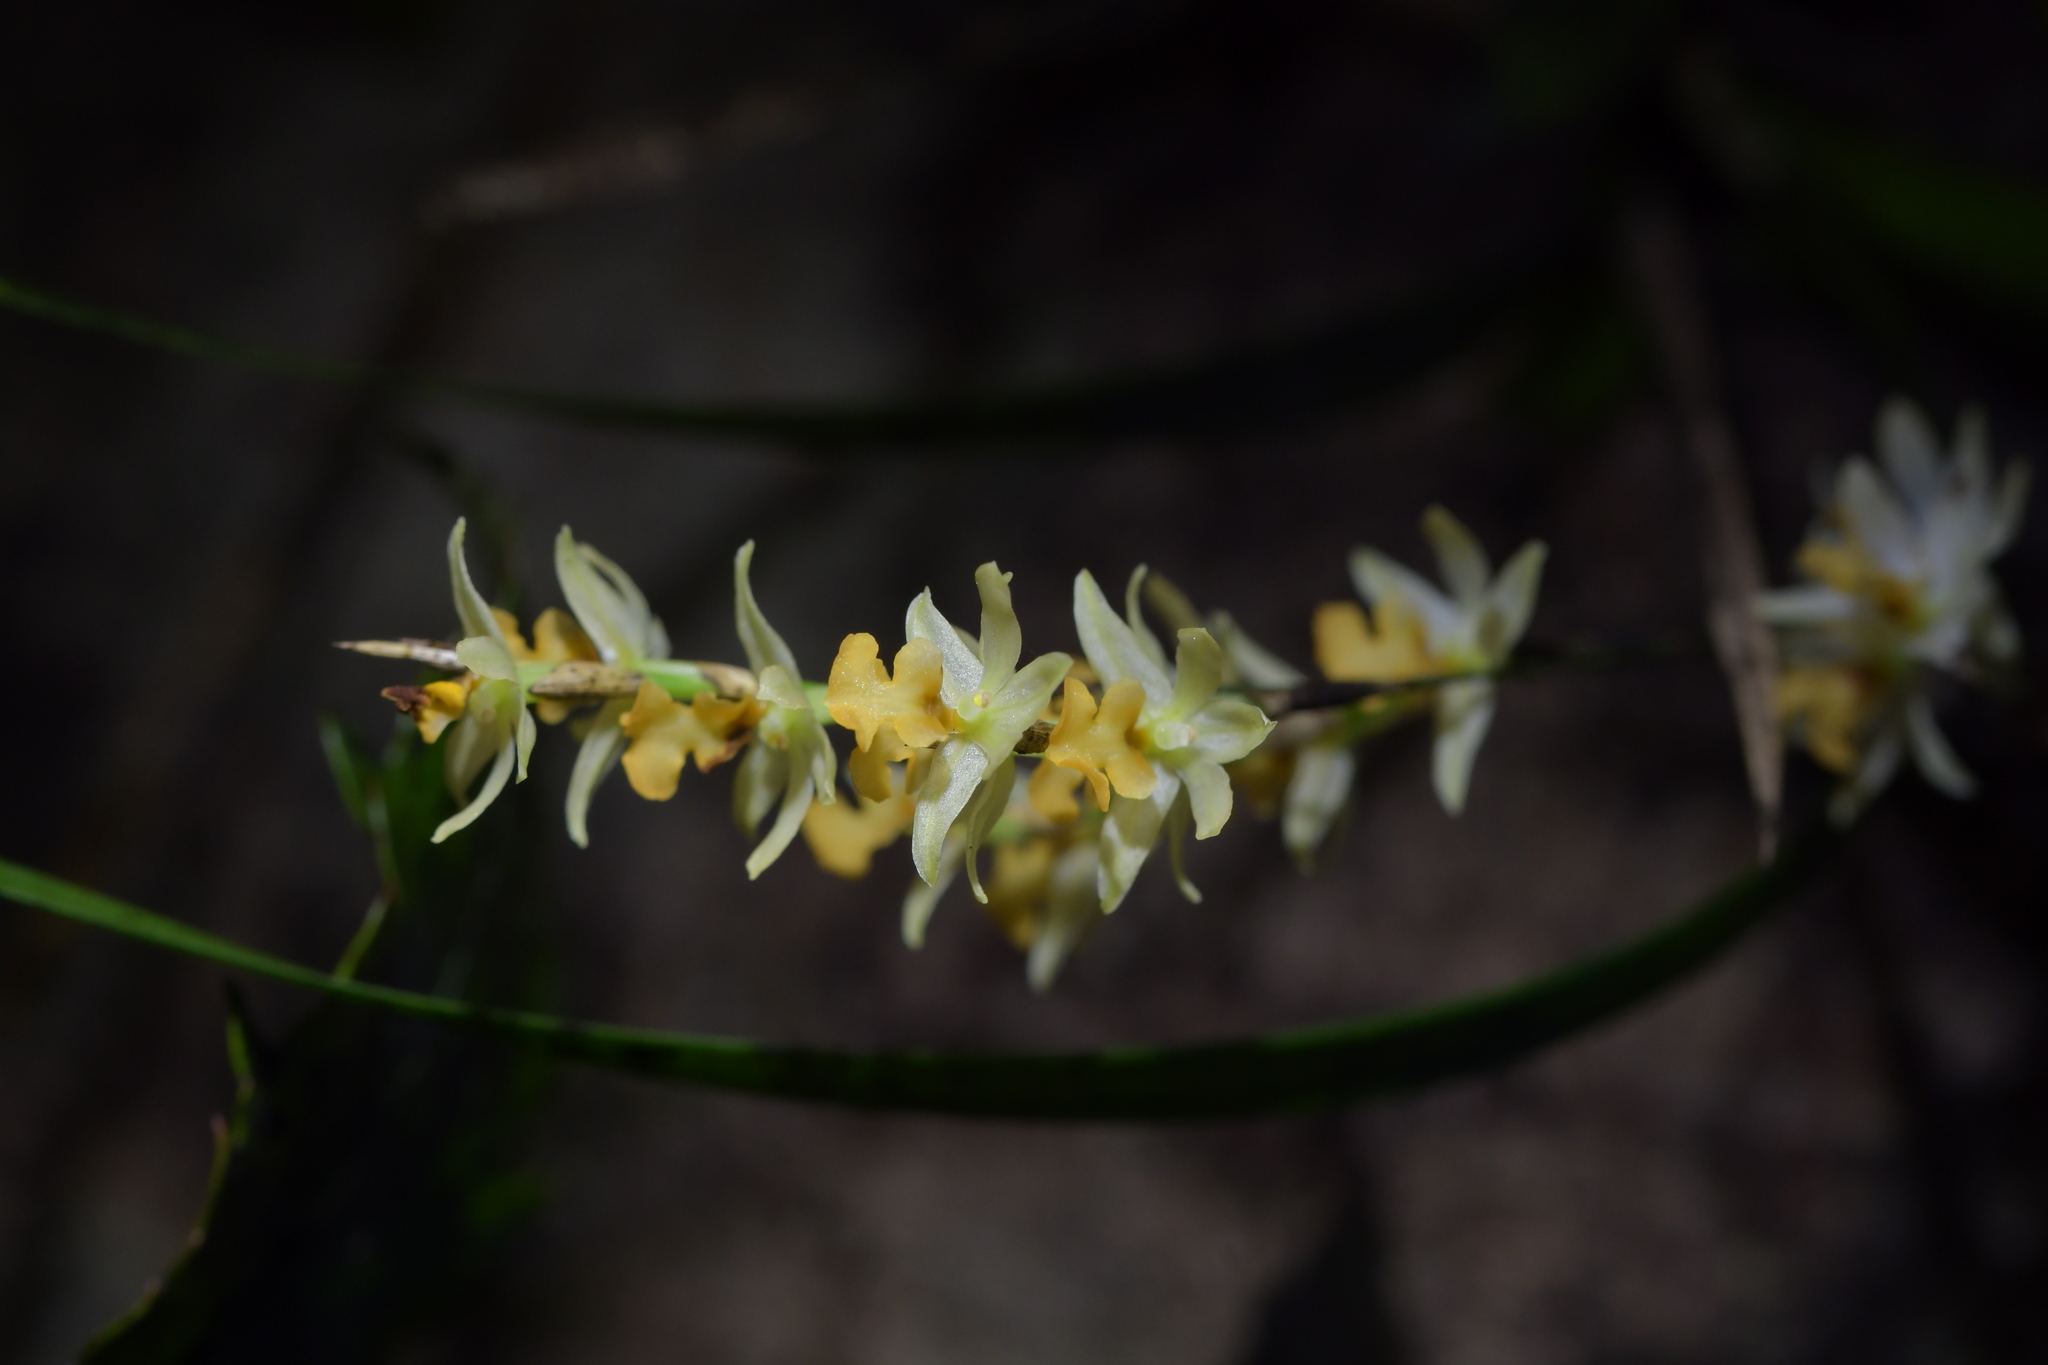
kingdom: Plantae
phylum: Tracheophyta
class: Liliopsida
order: Asparagales
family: Orchidaceae
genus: Earina
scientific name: Earina mucronata
